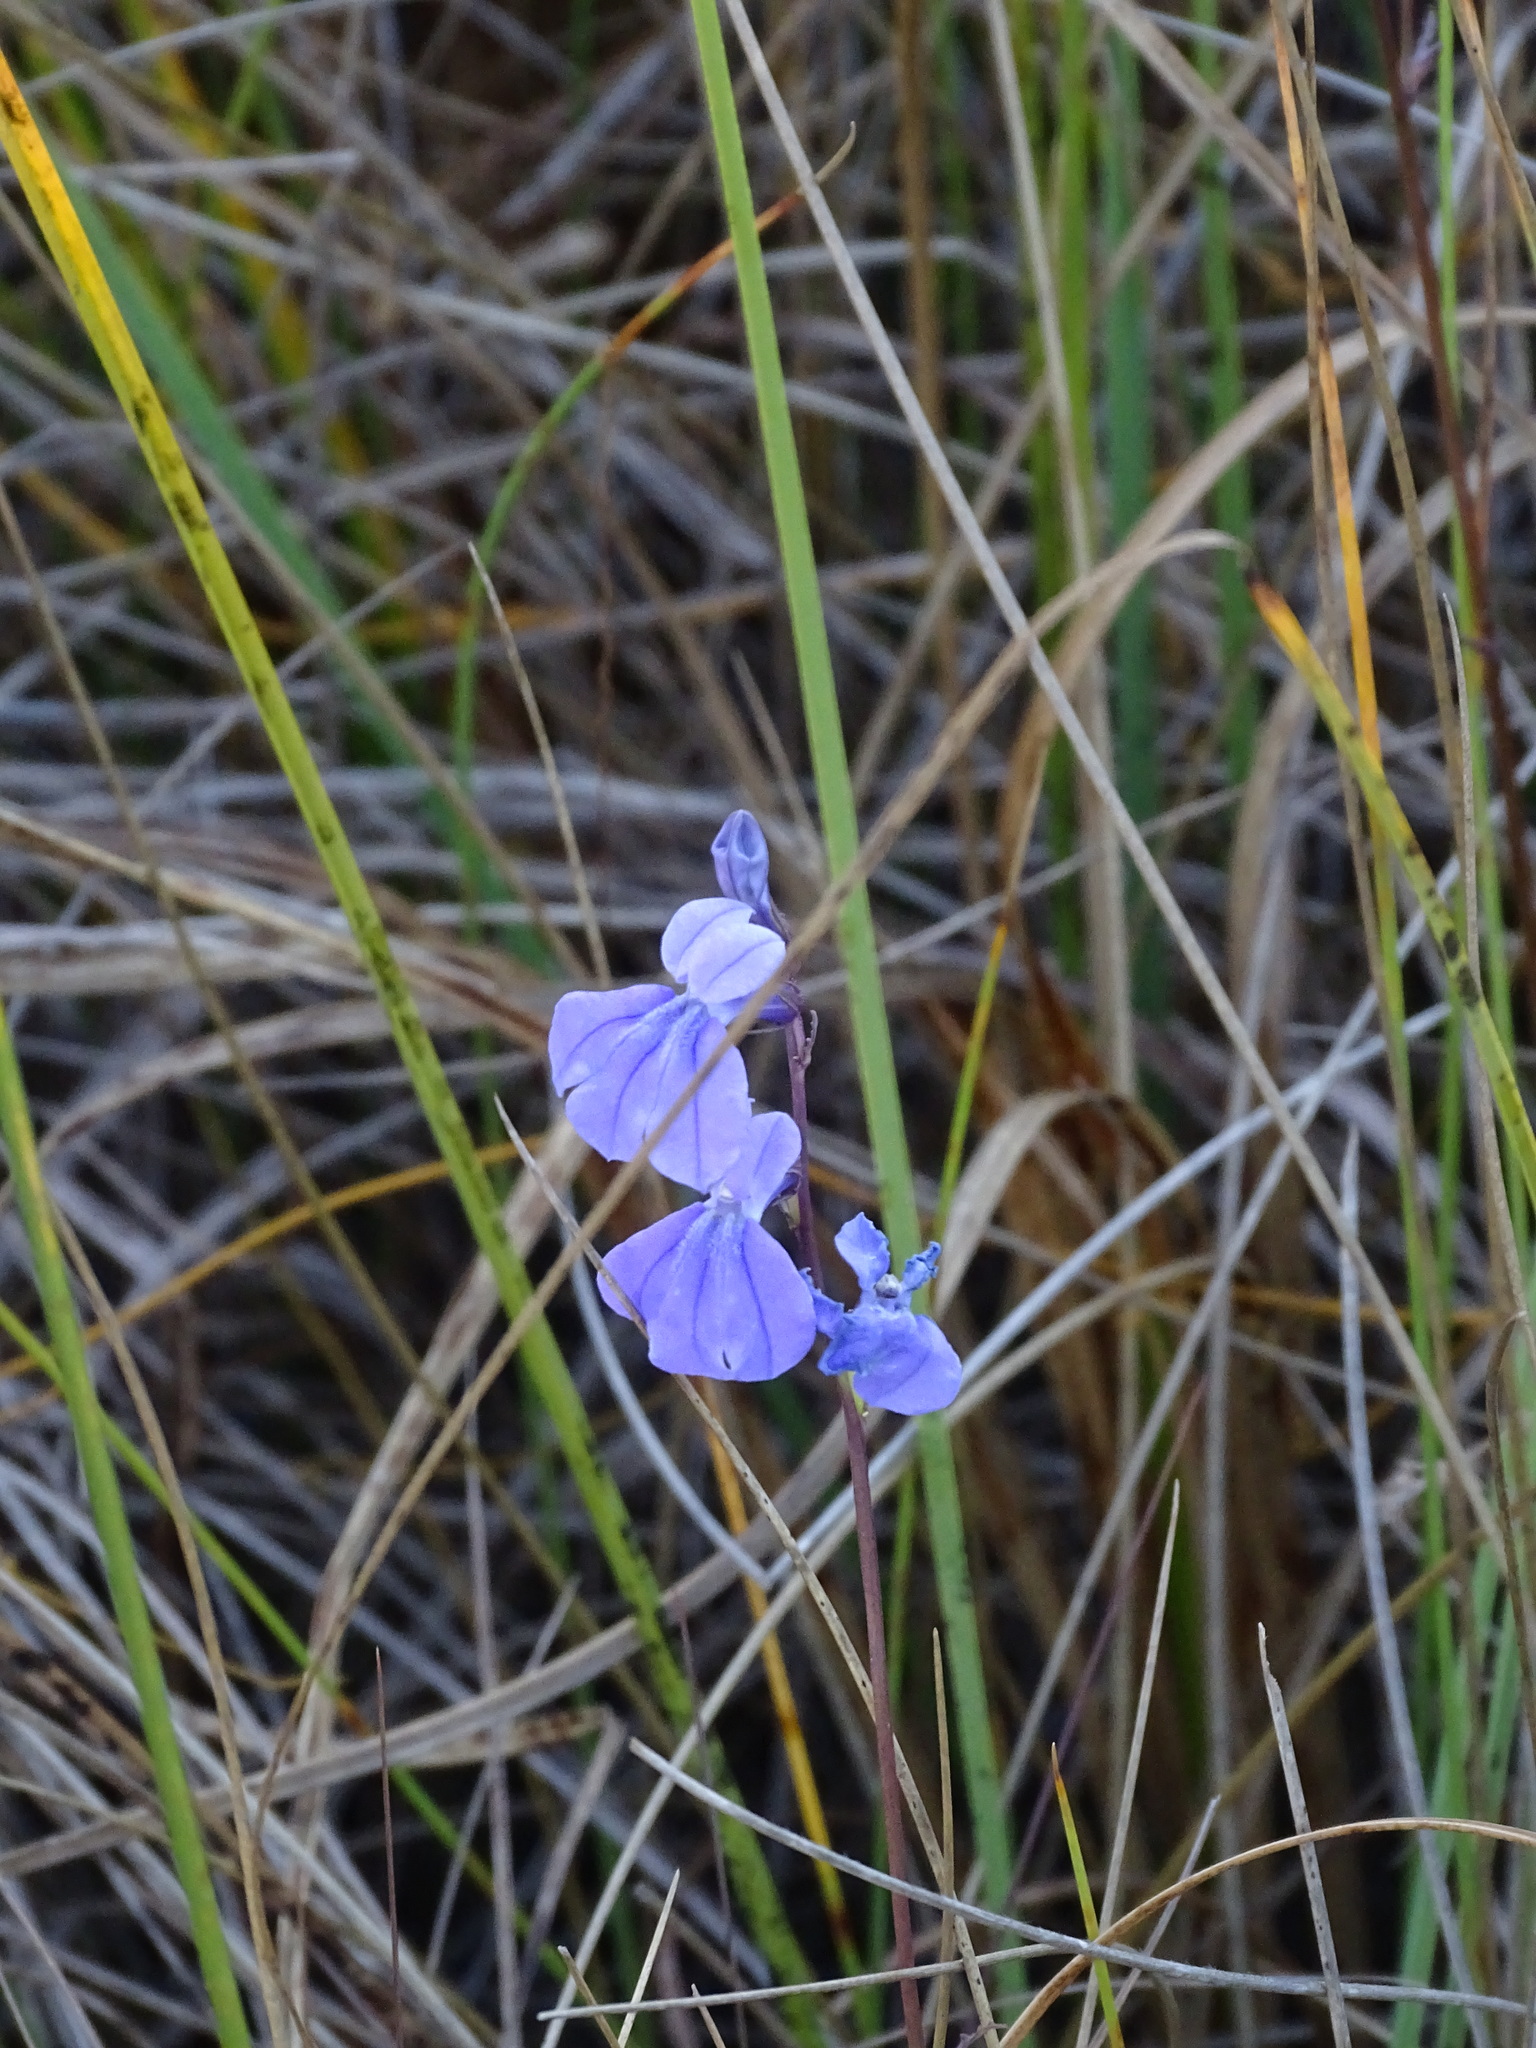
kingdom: Plantae
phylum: Tracheophyta
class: Magnoliopsida
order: Asterales
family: Campanulaceae
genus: Lobelia
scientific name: Lobelia glandulosa
